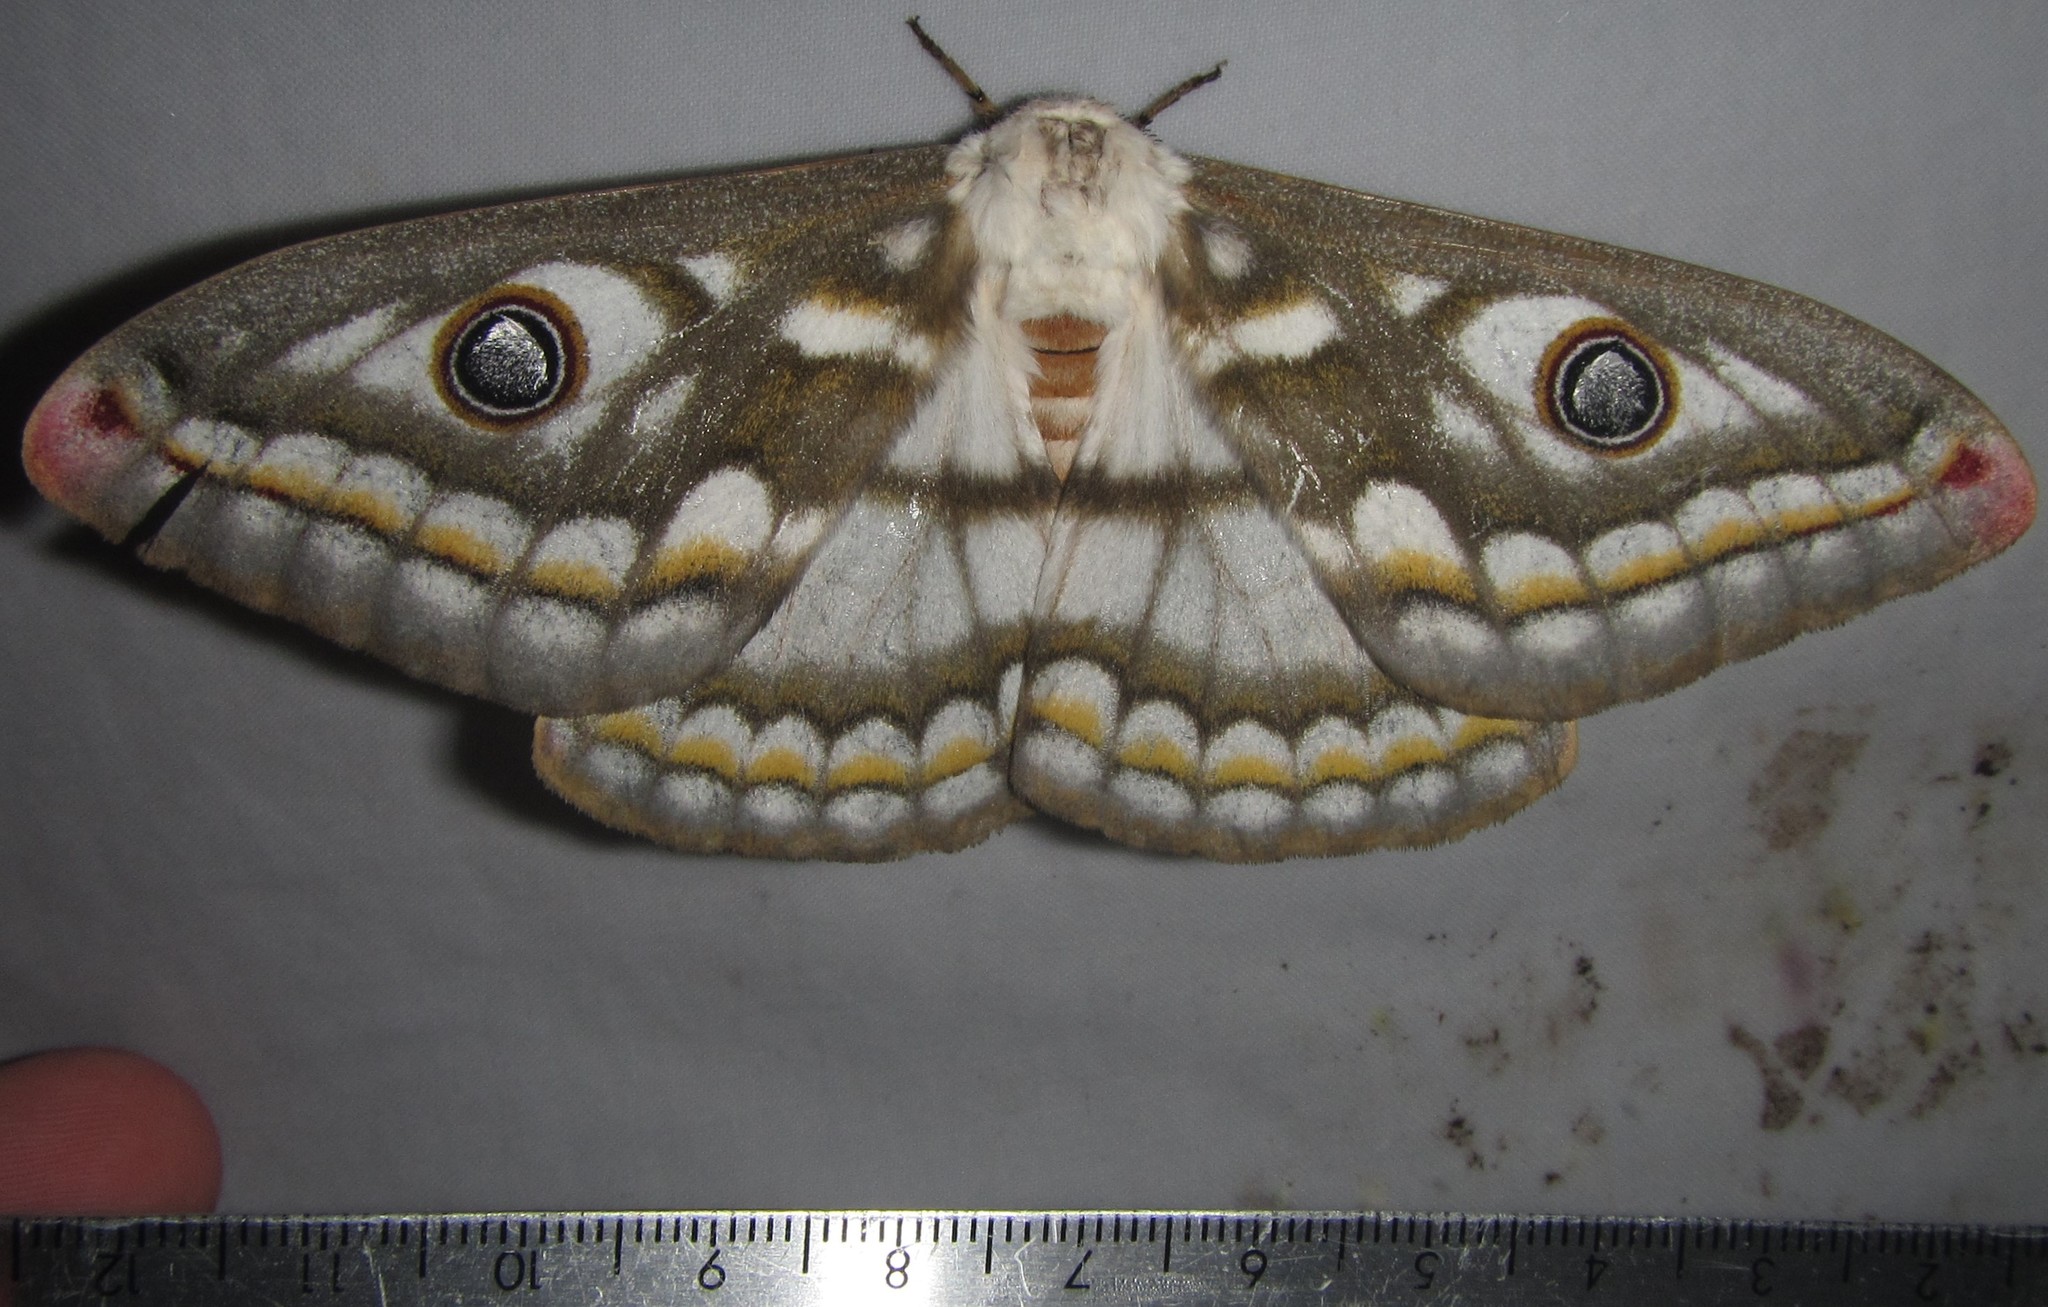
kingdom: Animalia
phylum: Arthropoda
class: Insecta
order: Lepidoptera
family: Saturniidae
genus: Heniocha
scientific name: Heniocha dyops
